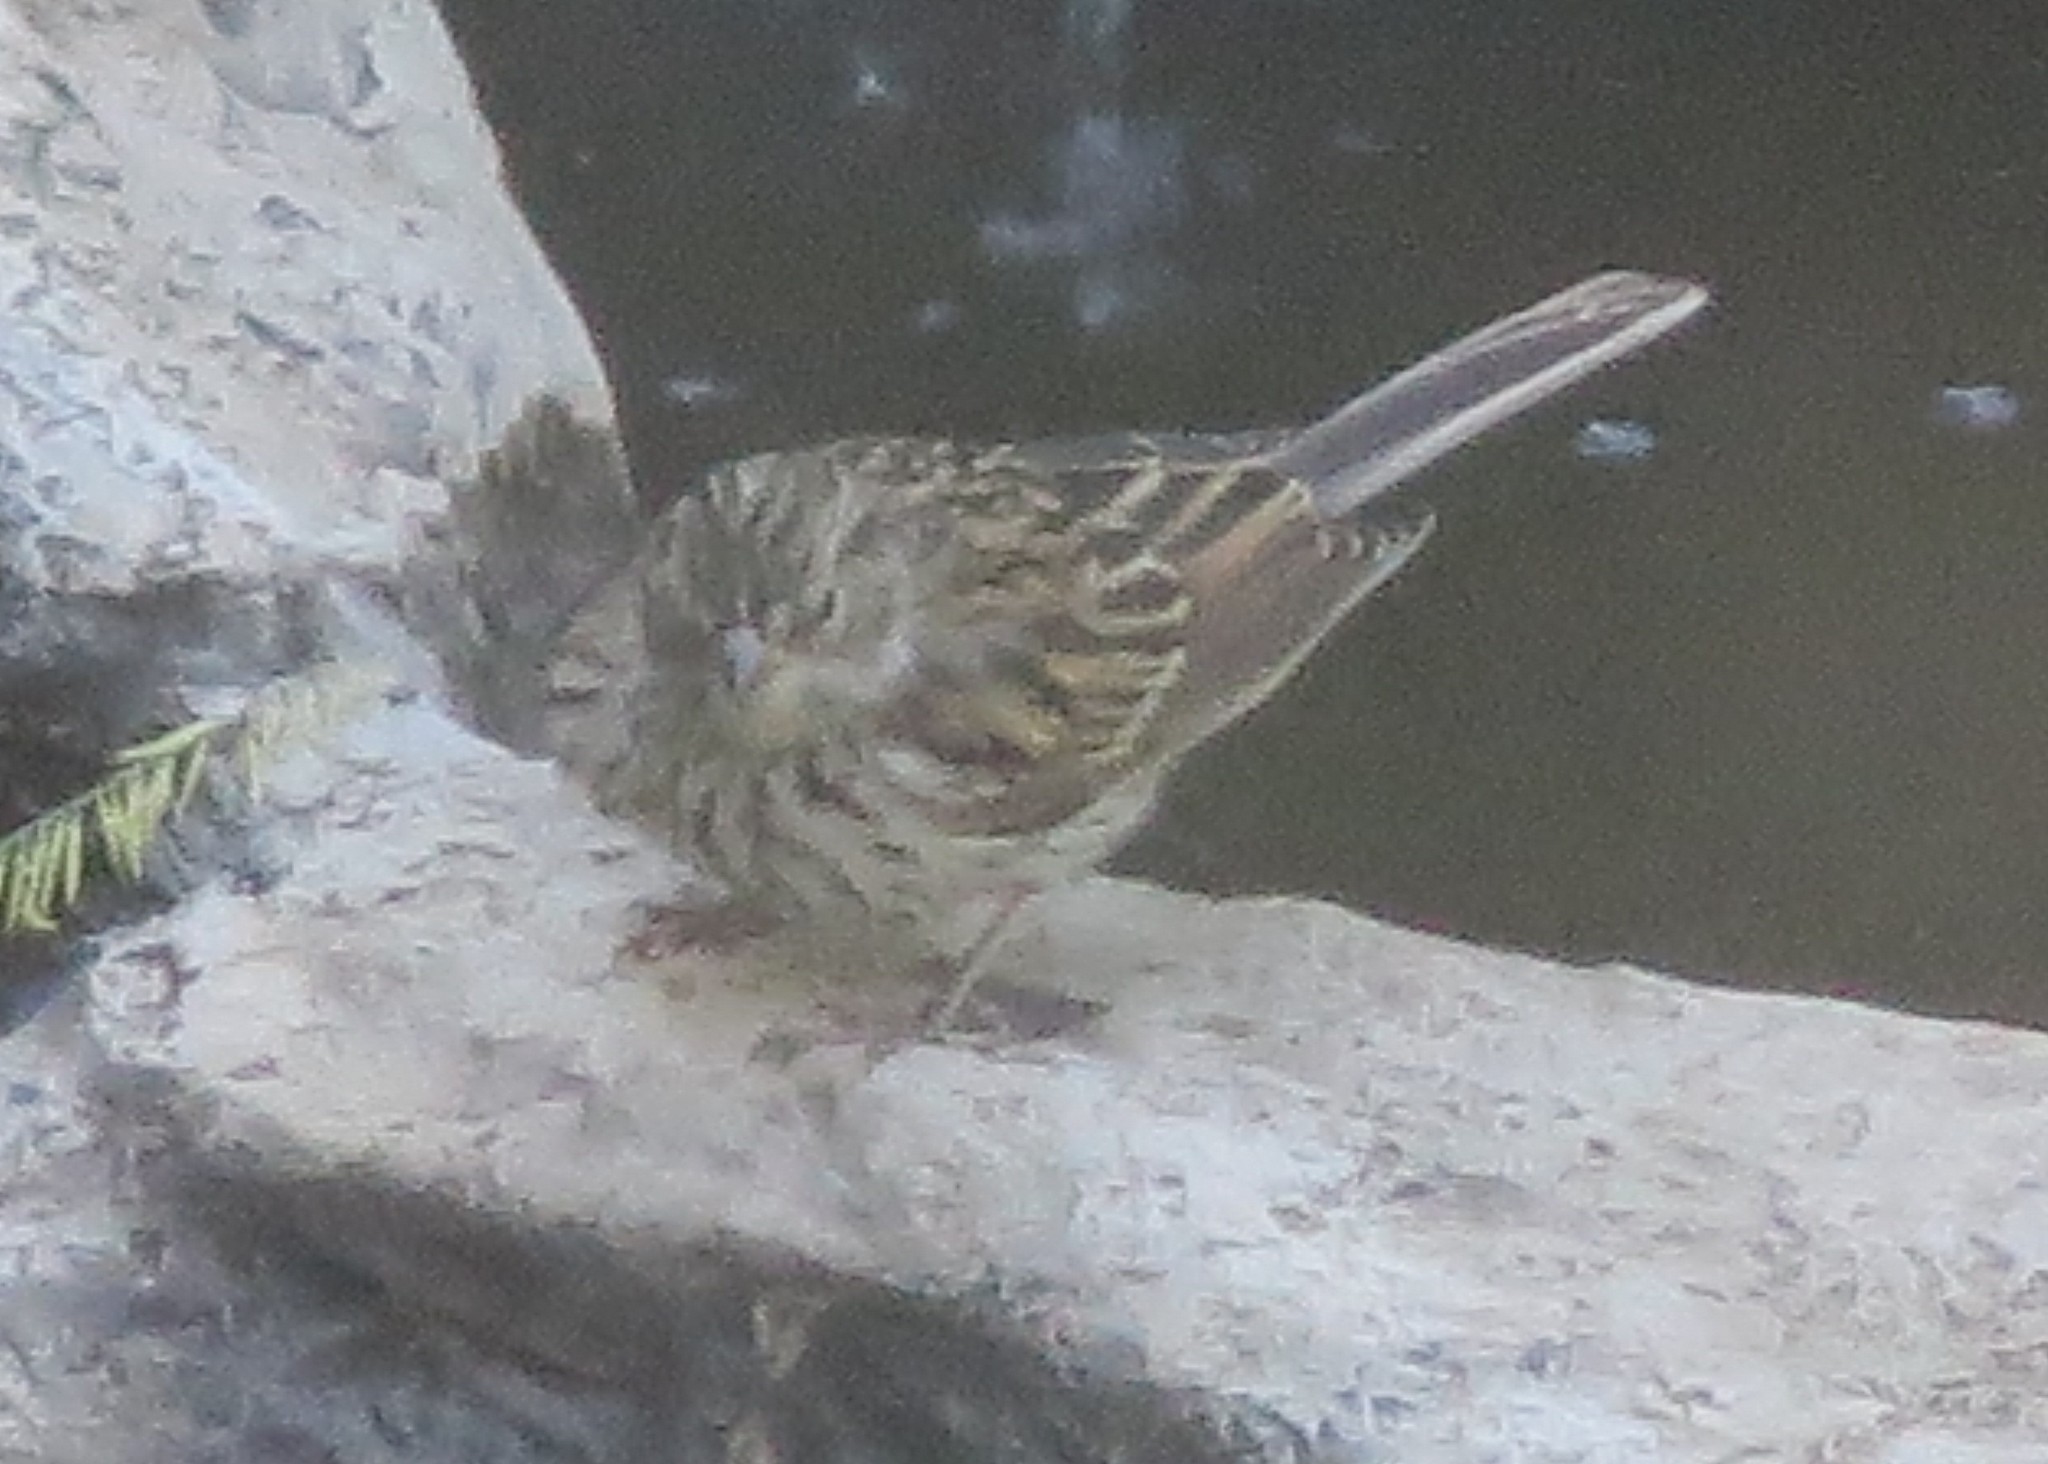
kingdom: Animalia
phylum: Chordata
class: Aves
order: Passeriformes
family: Passerellidae
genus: Spizella
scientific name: Spizella passerina
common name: Chipping sparrow
